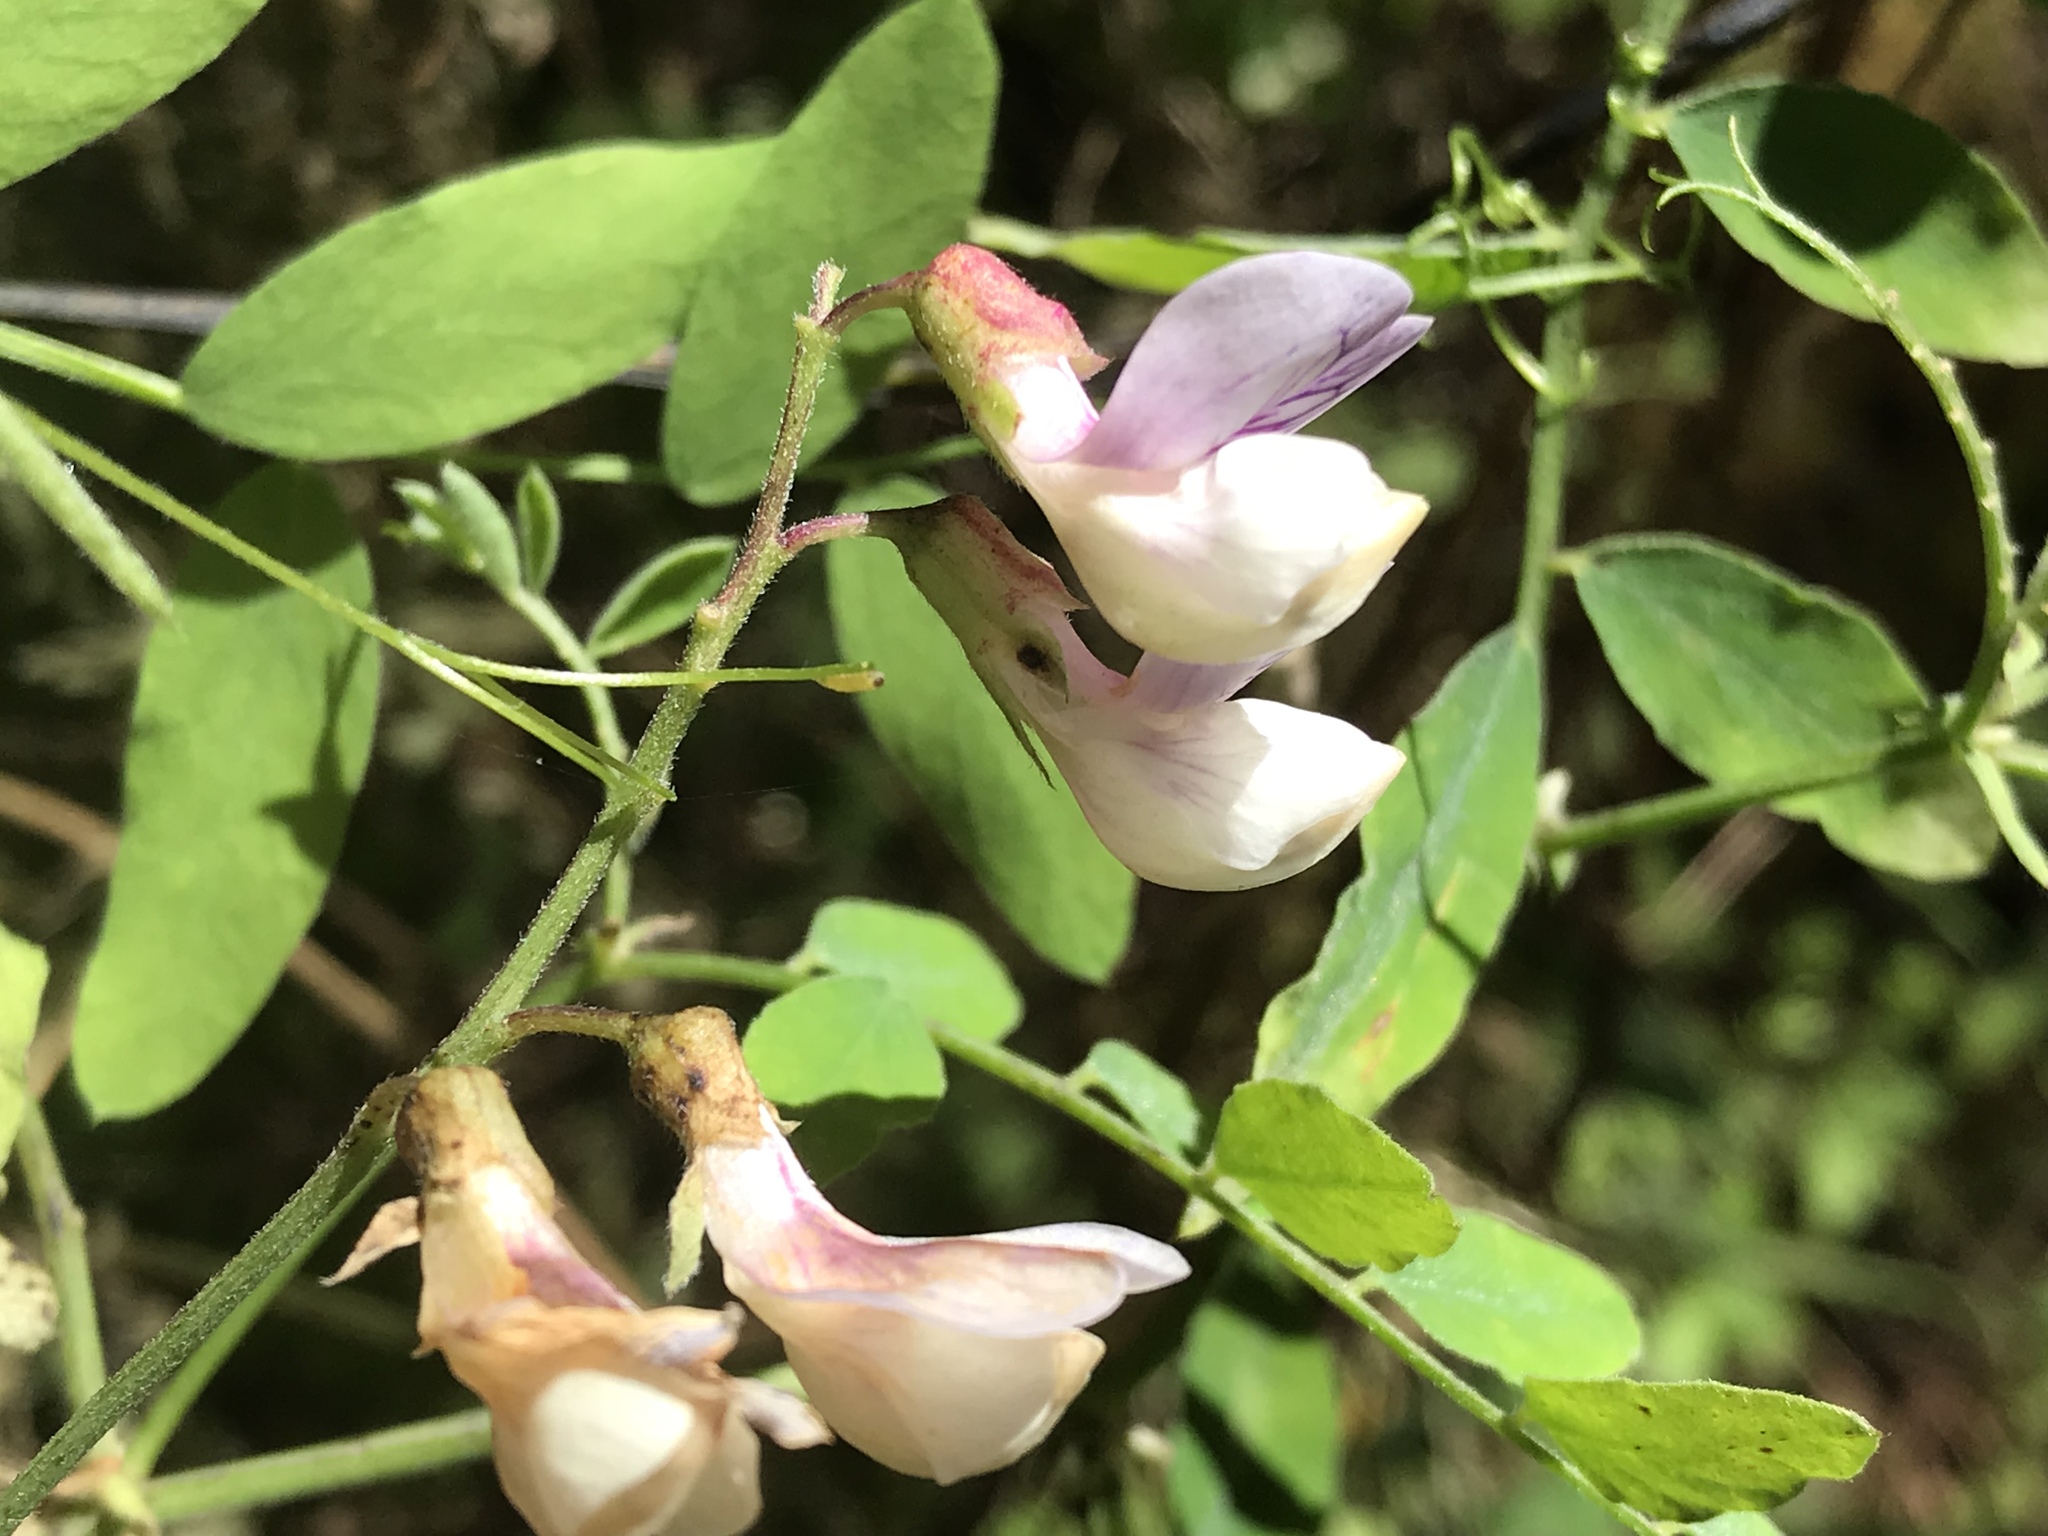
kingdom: Plantae
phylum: Tracheophyta
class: Magnoliopsida
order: Fabales
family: Fabaceae
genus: Lathyrus
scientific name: Lathyrus vestitus
